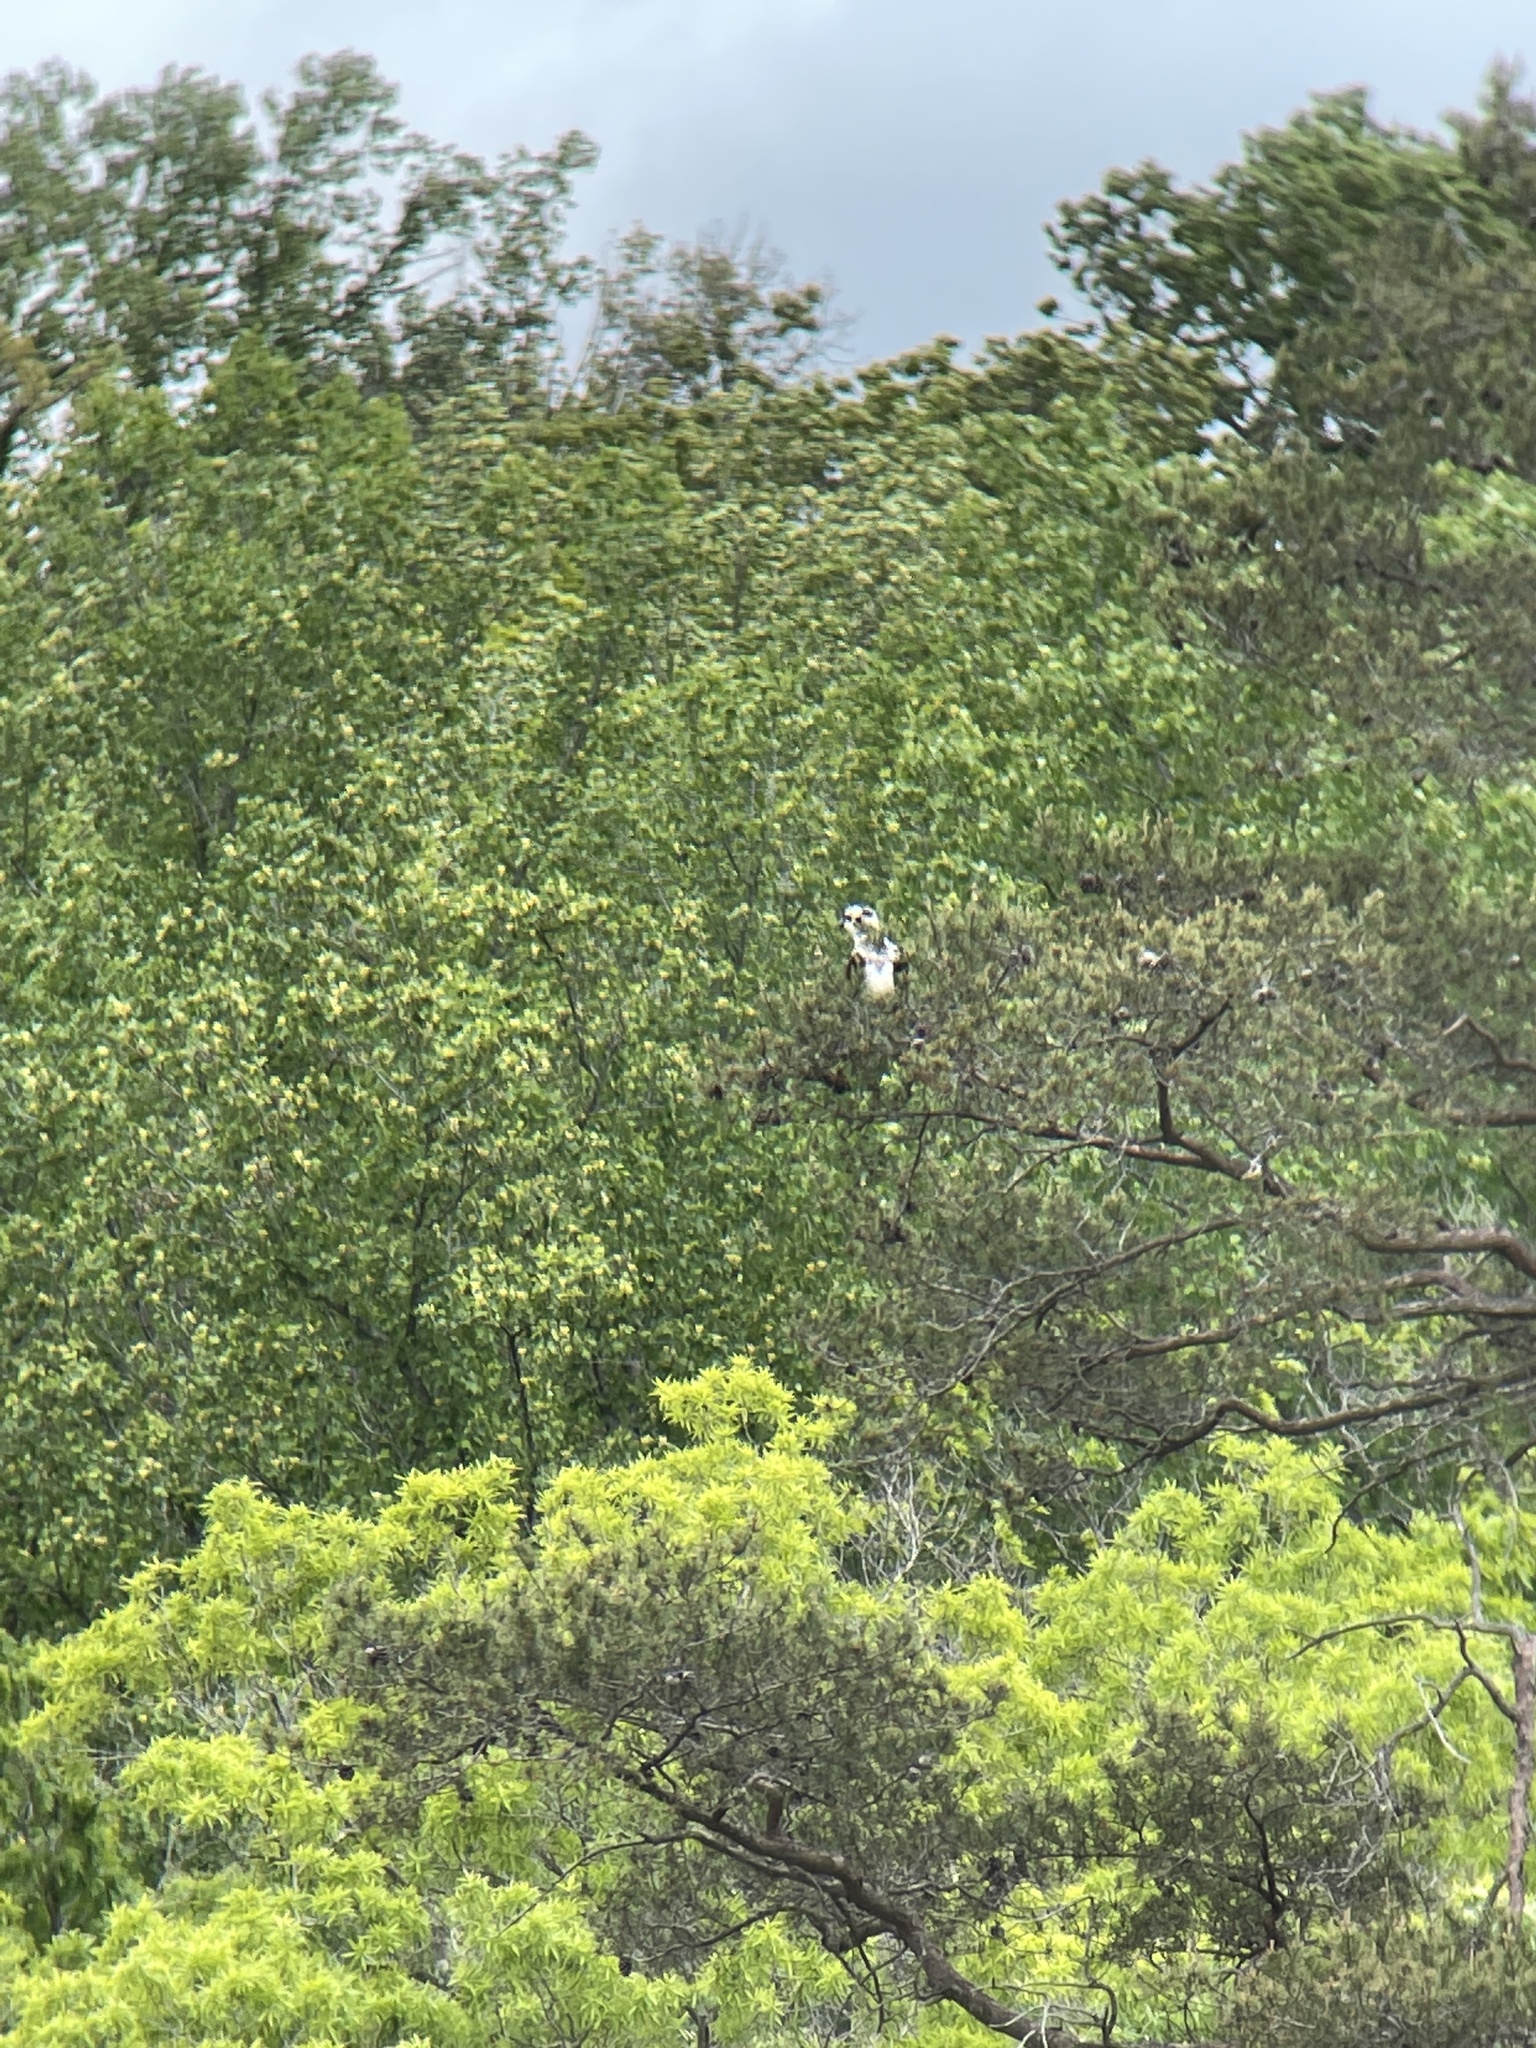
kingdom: Animalia
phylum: Chordata
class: Aves
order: Accipitriformes
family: Pandionidae
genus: Pandion
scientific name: Pandion haliaetus
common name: Osprey
